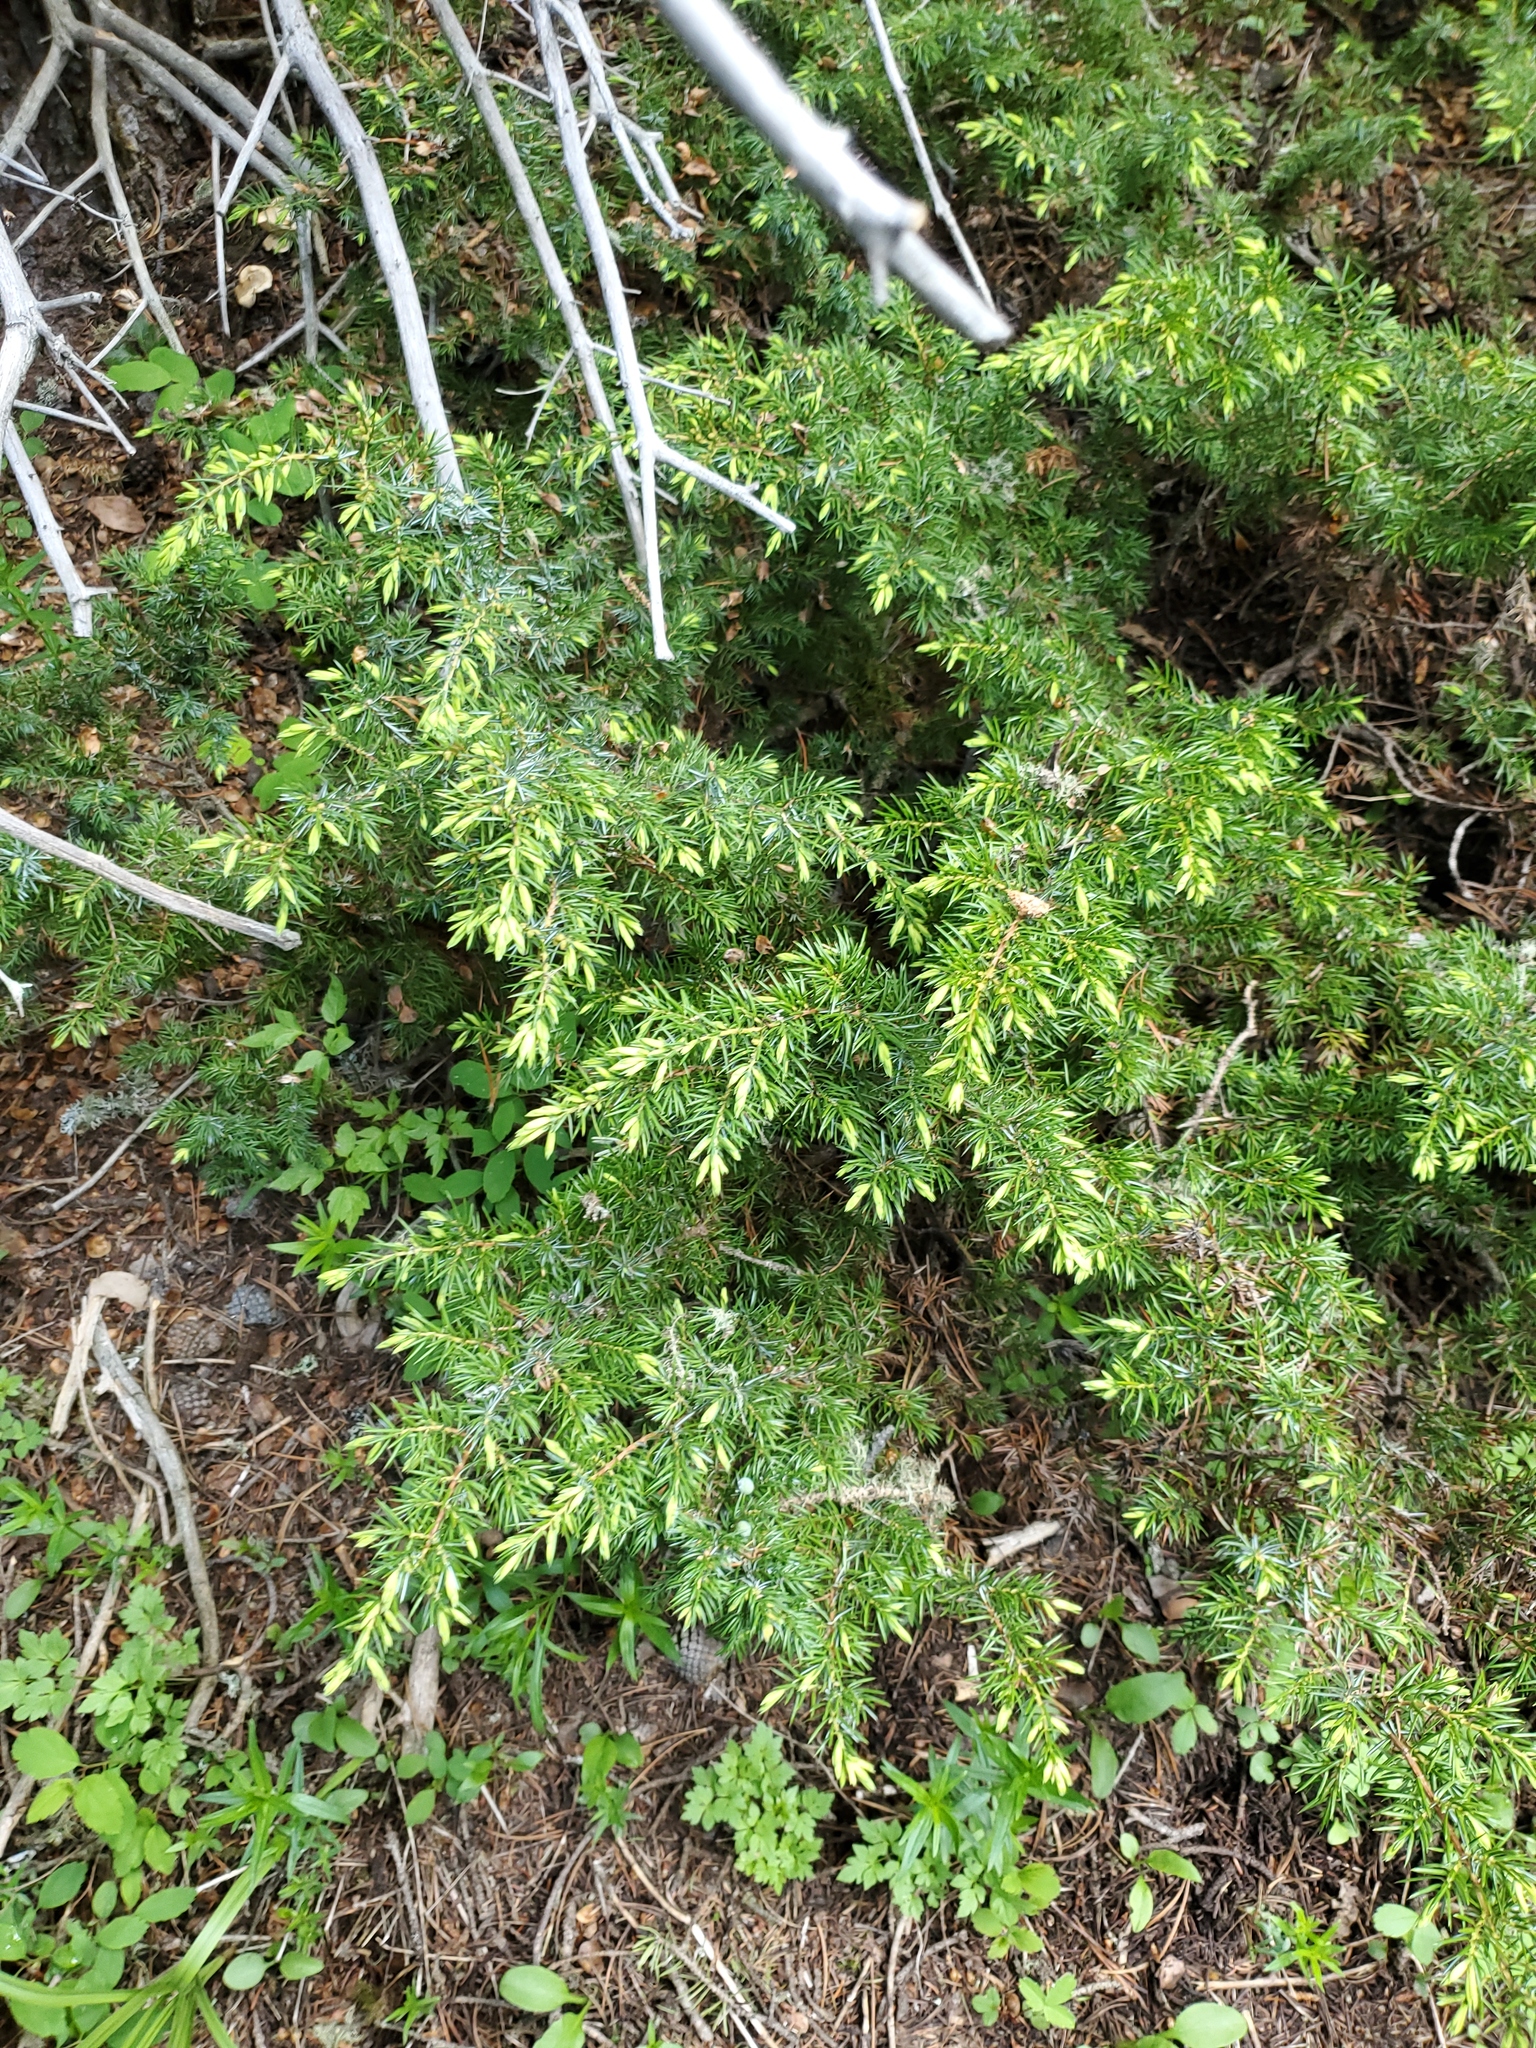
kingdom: Plantae
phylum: Tracheophyta
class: Pinopsida
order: Pinales
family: Cupressaceae
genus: Juniperus
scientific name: Juniperus communis
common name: Common juniper
